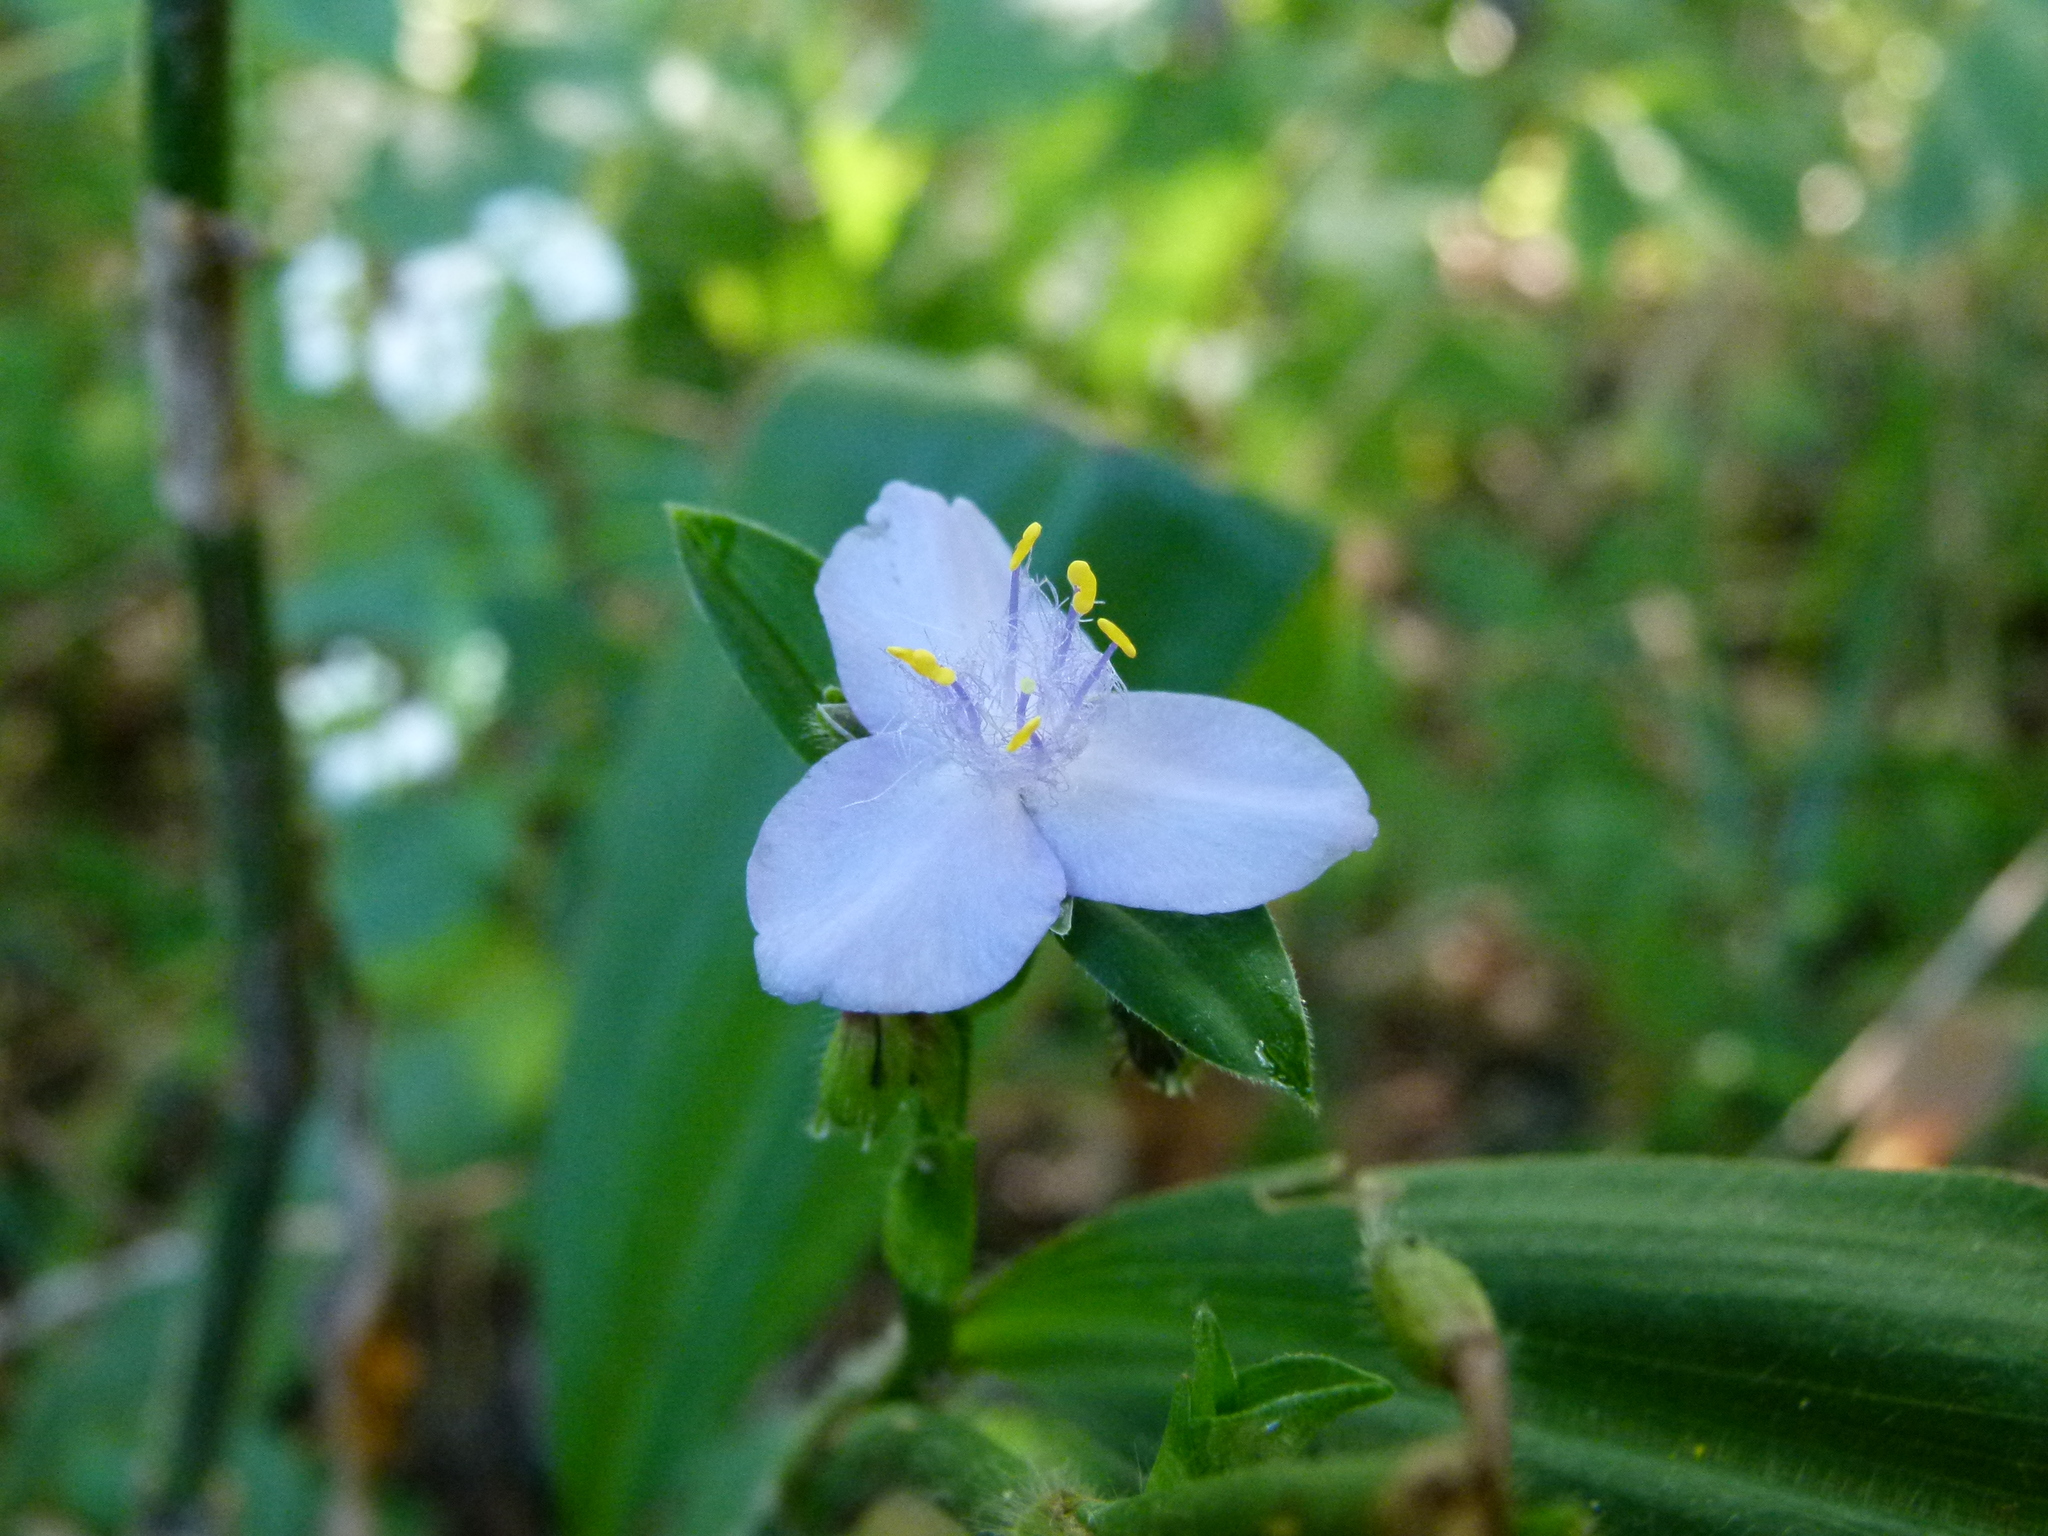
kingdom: Plantae
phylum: Tracheophyta
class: Liliopsida
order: Commelinales
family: Commelinaceae
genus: Tradescantia
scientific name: Tradescantia subaspera
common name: Wide-leaf spiderwort
